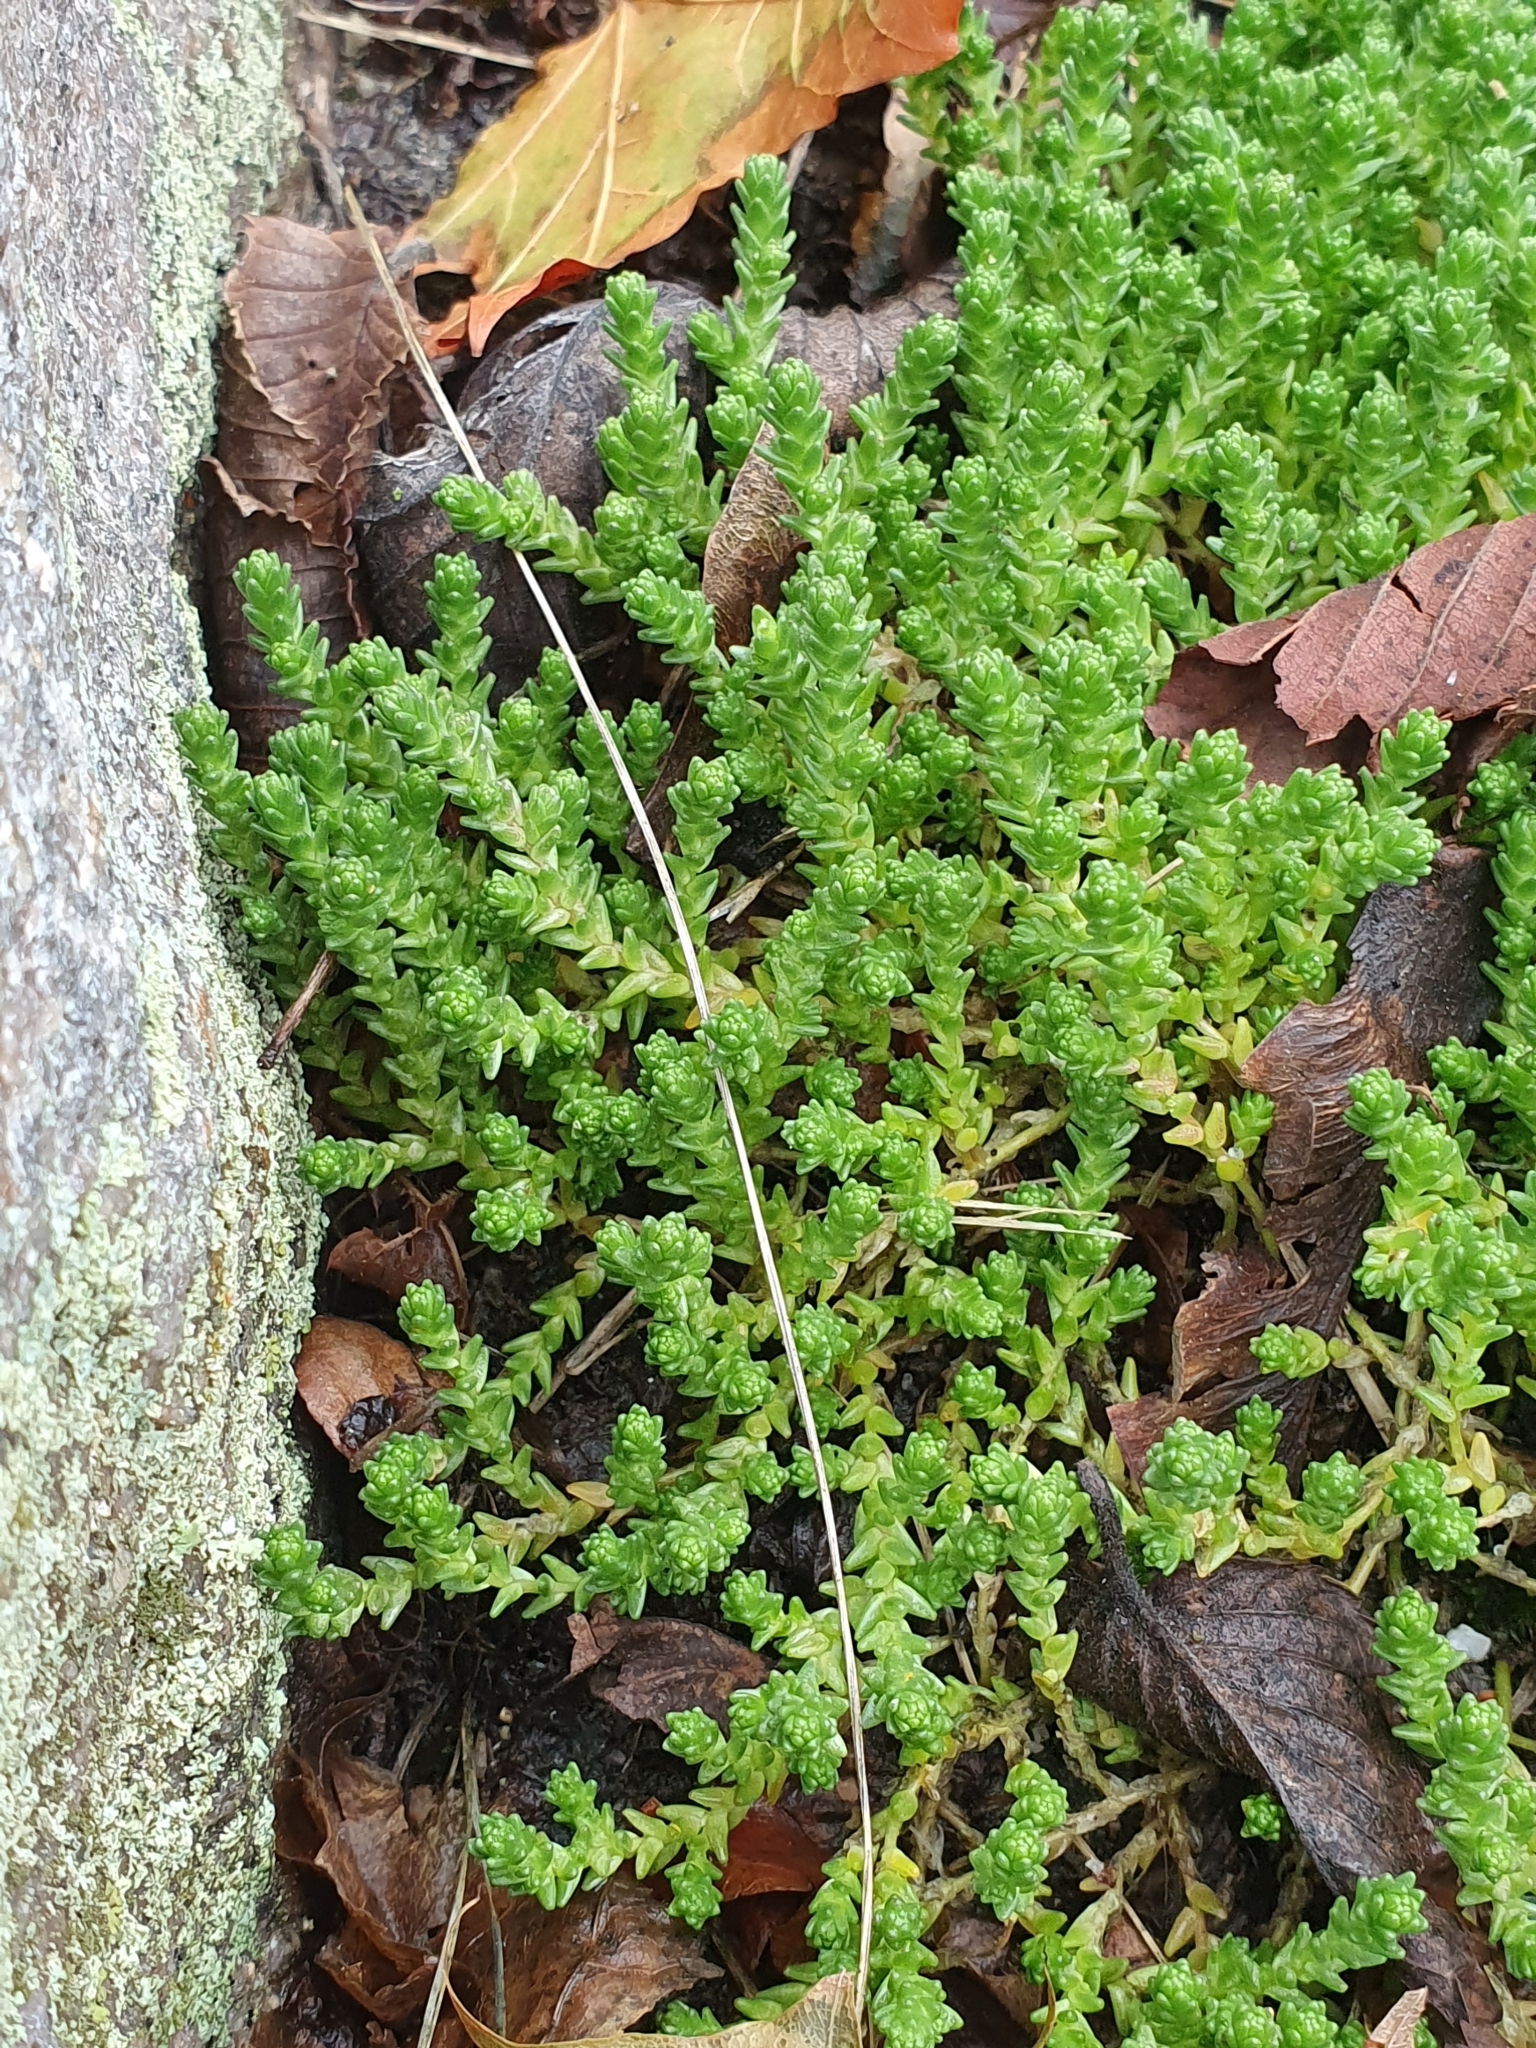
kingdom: Plantae
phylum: Tracheophyta
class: Magnoliopsida
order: Saxifragales
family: Crassulaceae
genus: Sedum
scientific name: Sedum acre
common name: Biting stonecrop
